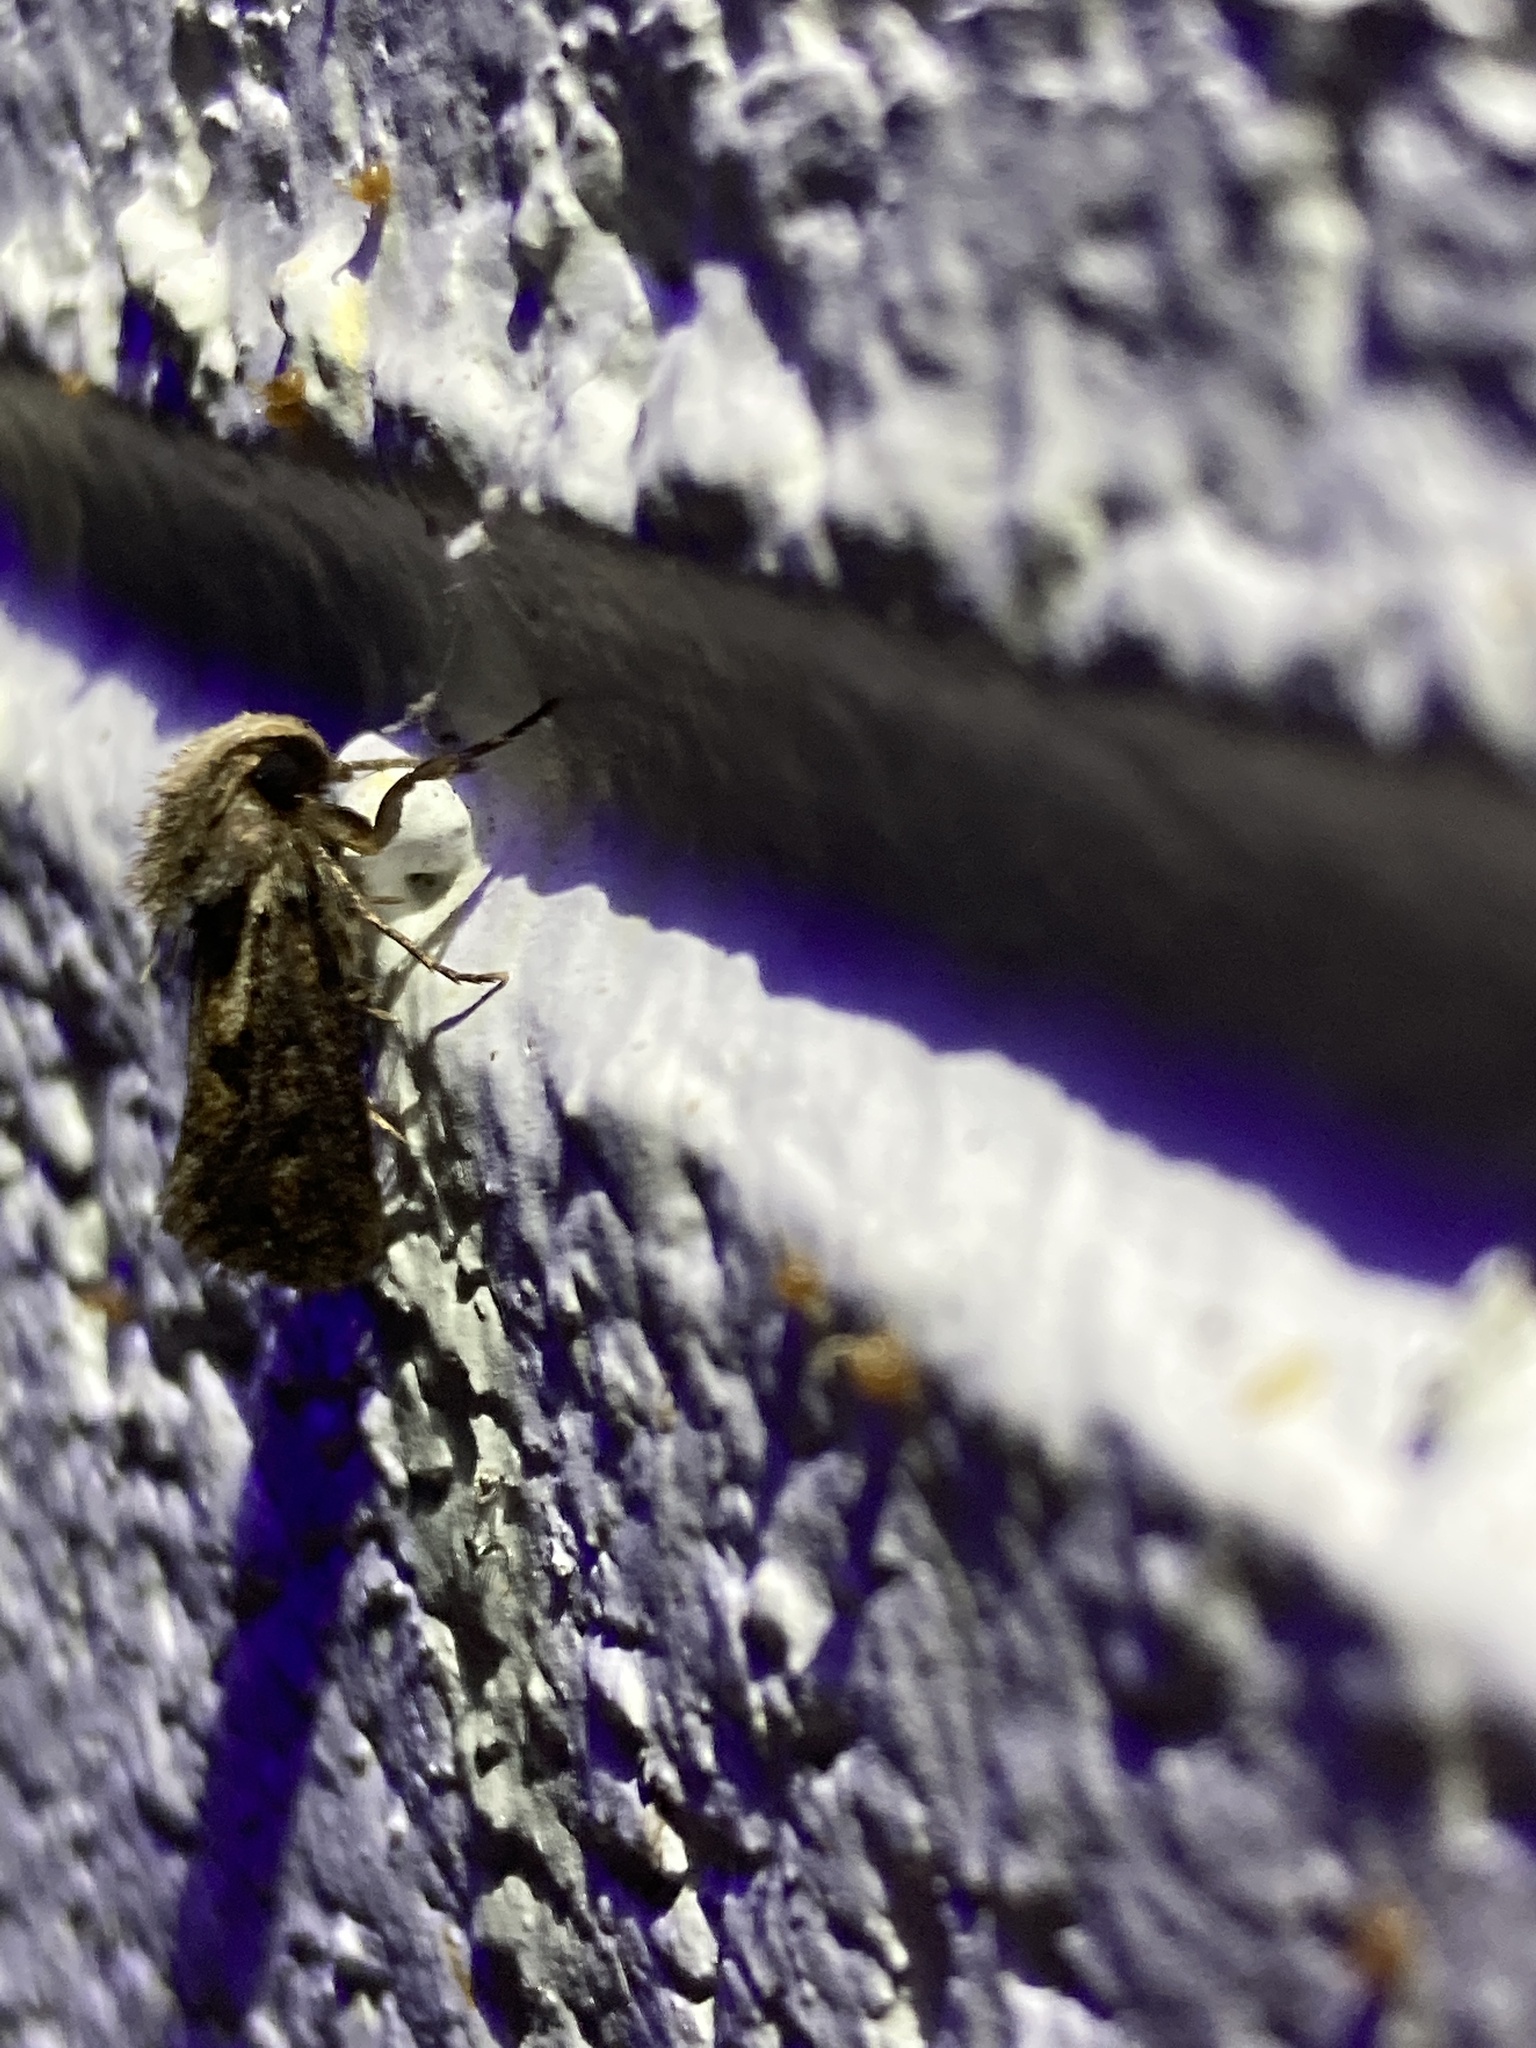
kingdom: Animalia
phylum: Arthropoda
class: Insecta
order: Lepidoptera
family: Tineidae
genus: Acrolophus
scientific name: Acrolophus popeanella
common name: Clemens' grass tubeworm moth
